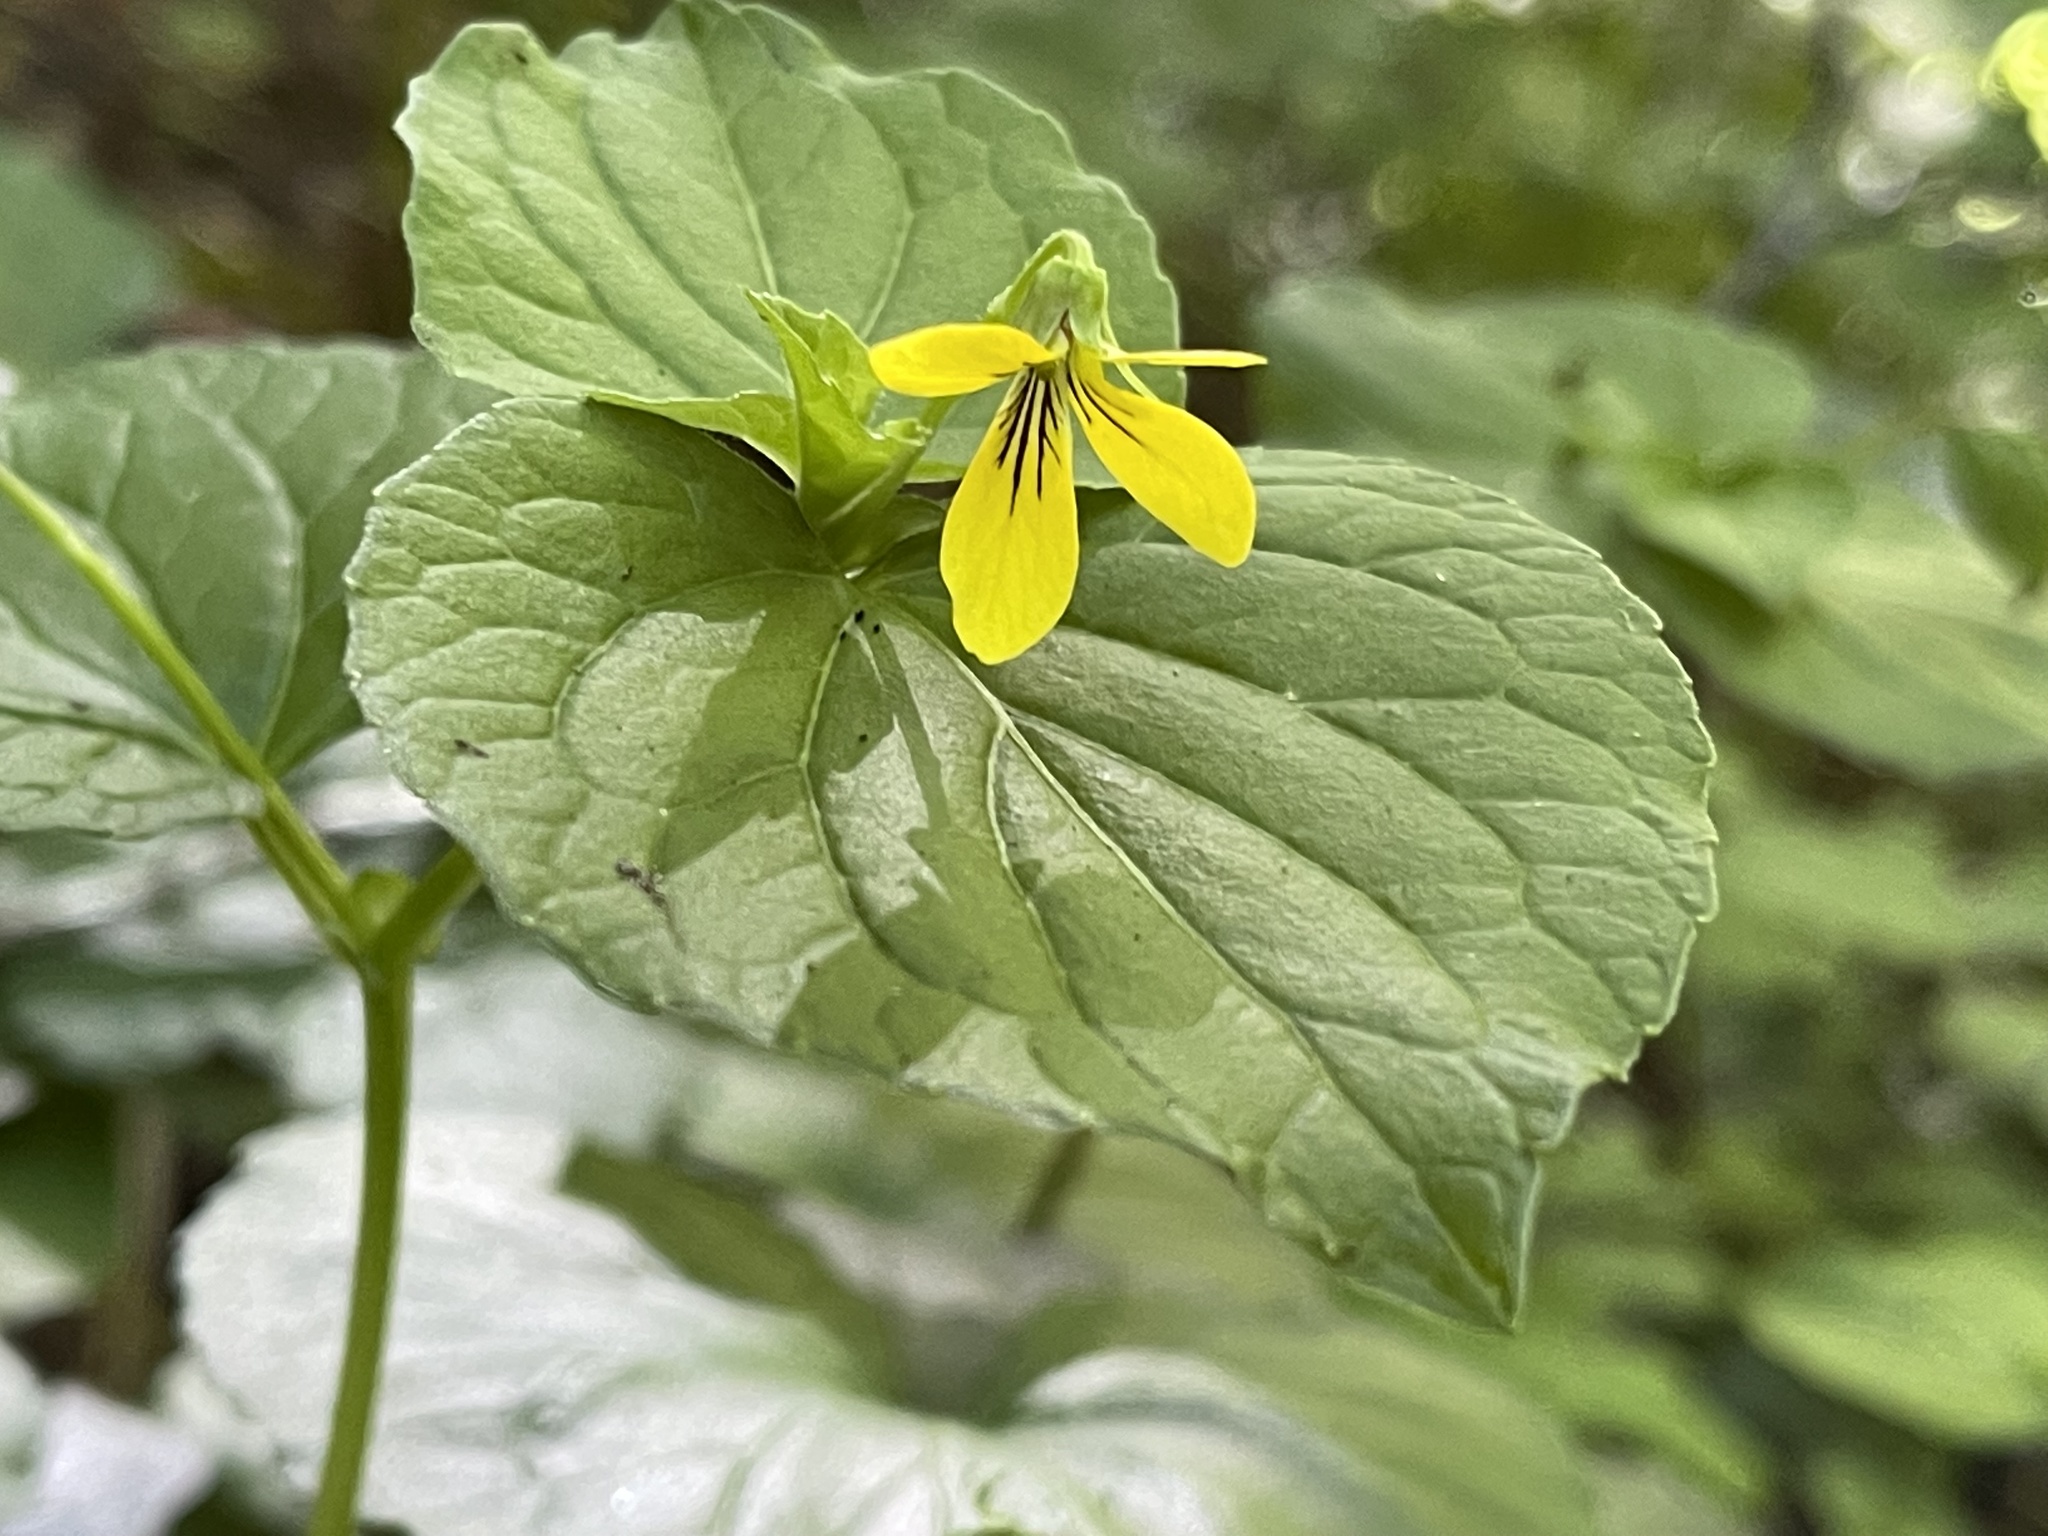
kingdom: Plantae
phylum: Tracheophyta
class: Magnoliopsida
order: Malpighiales
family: Violaceae
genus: Viola
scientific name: Viola glabella
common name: Stream violet
